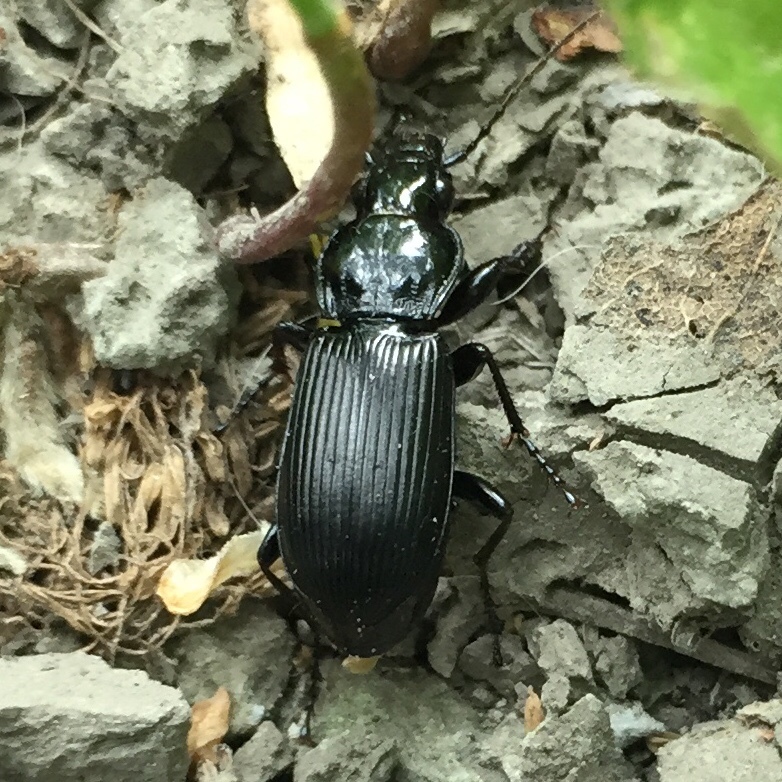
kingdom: Animalia
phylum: Arthropoda
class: Insecta
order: Coleoptera
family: Carabidae
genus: Pterostichus
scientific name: Pterostichus melanarius
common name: European dark harp ground beetle
